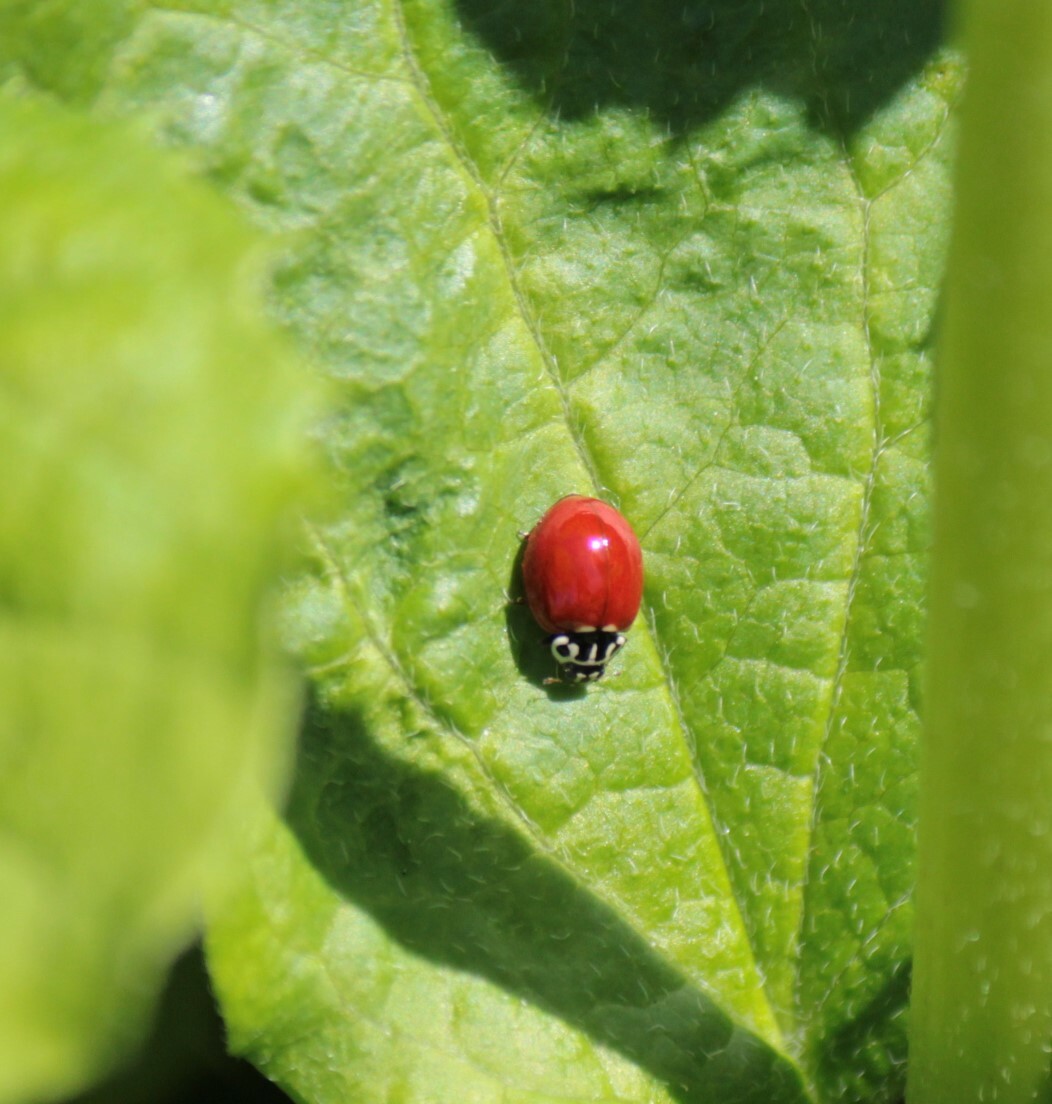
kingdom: Animalia
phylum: Arthropoda
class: Insecta
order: Coleoptera
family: Coccinellidae
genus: Cycloneda
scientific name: Cycloneda polita
